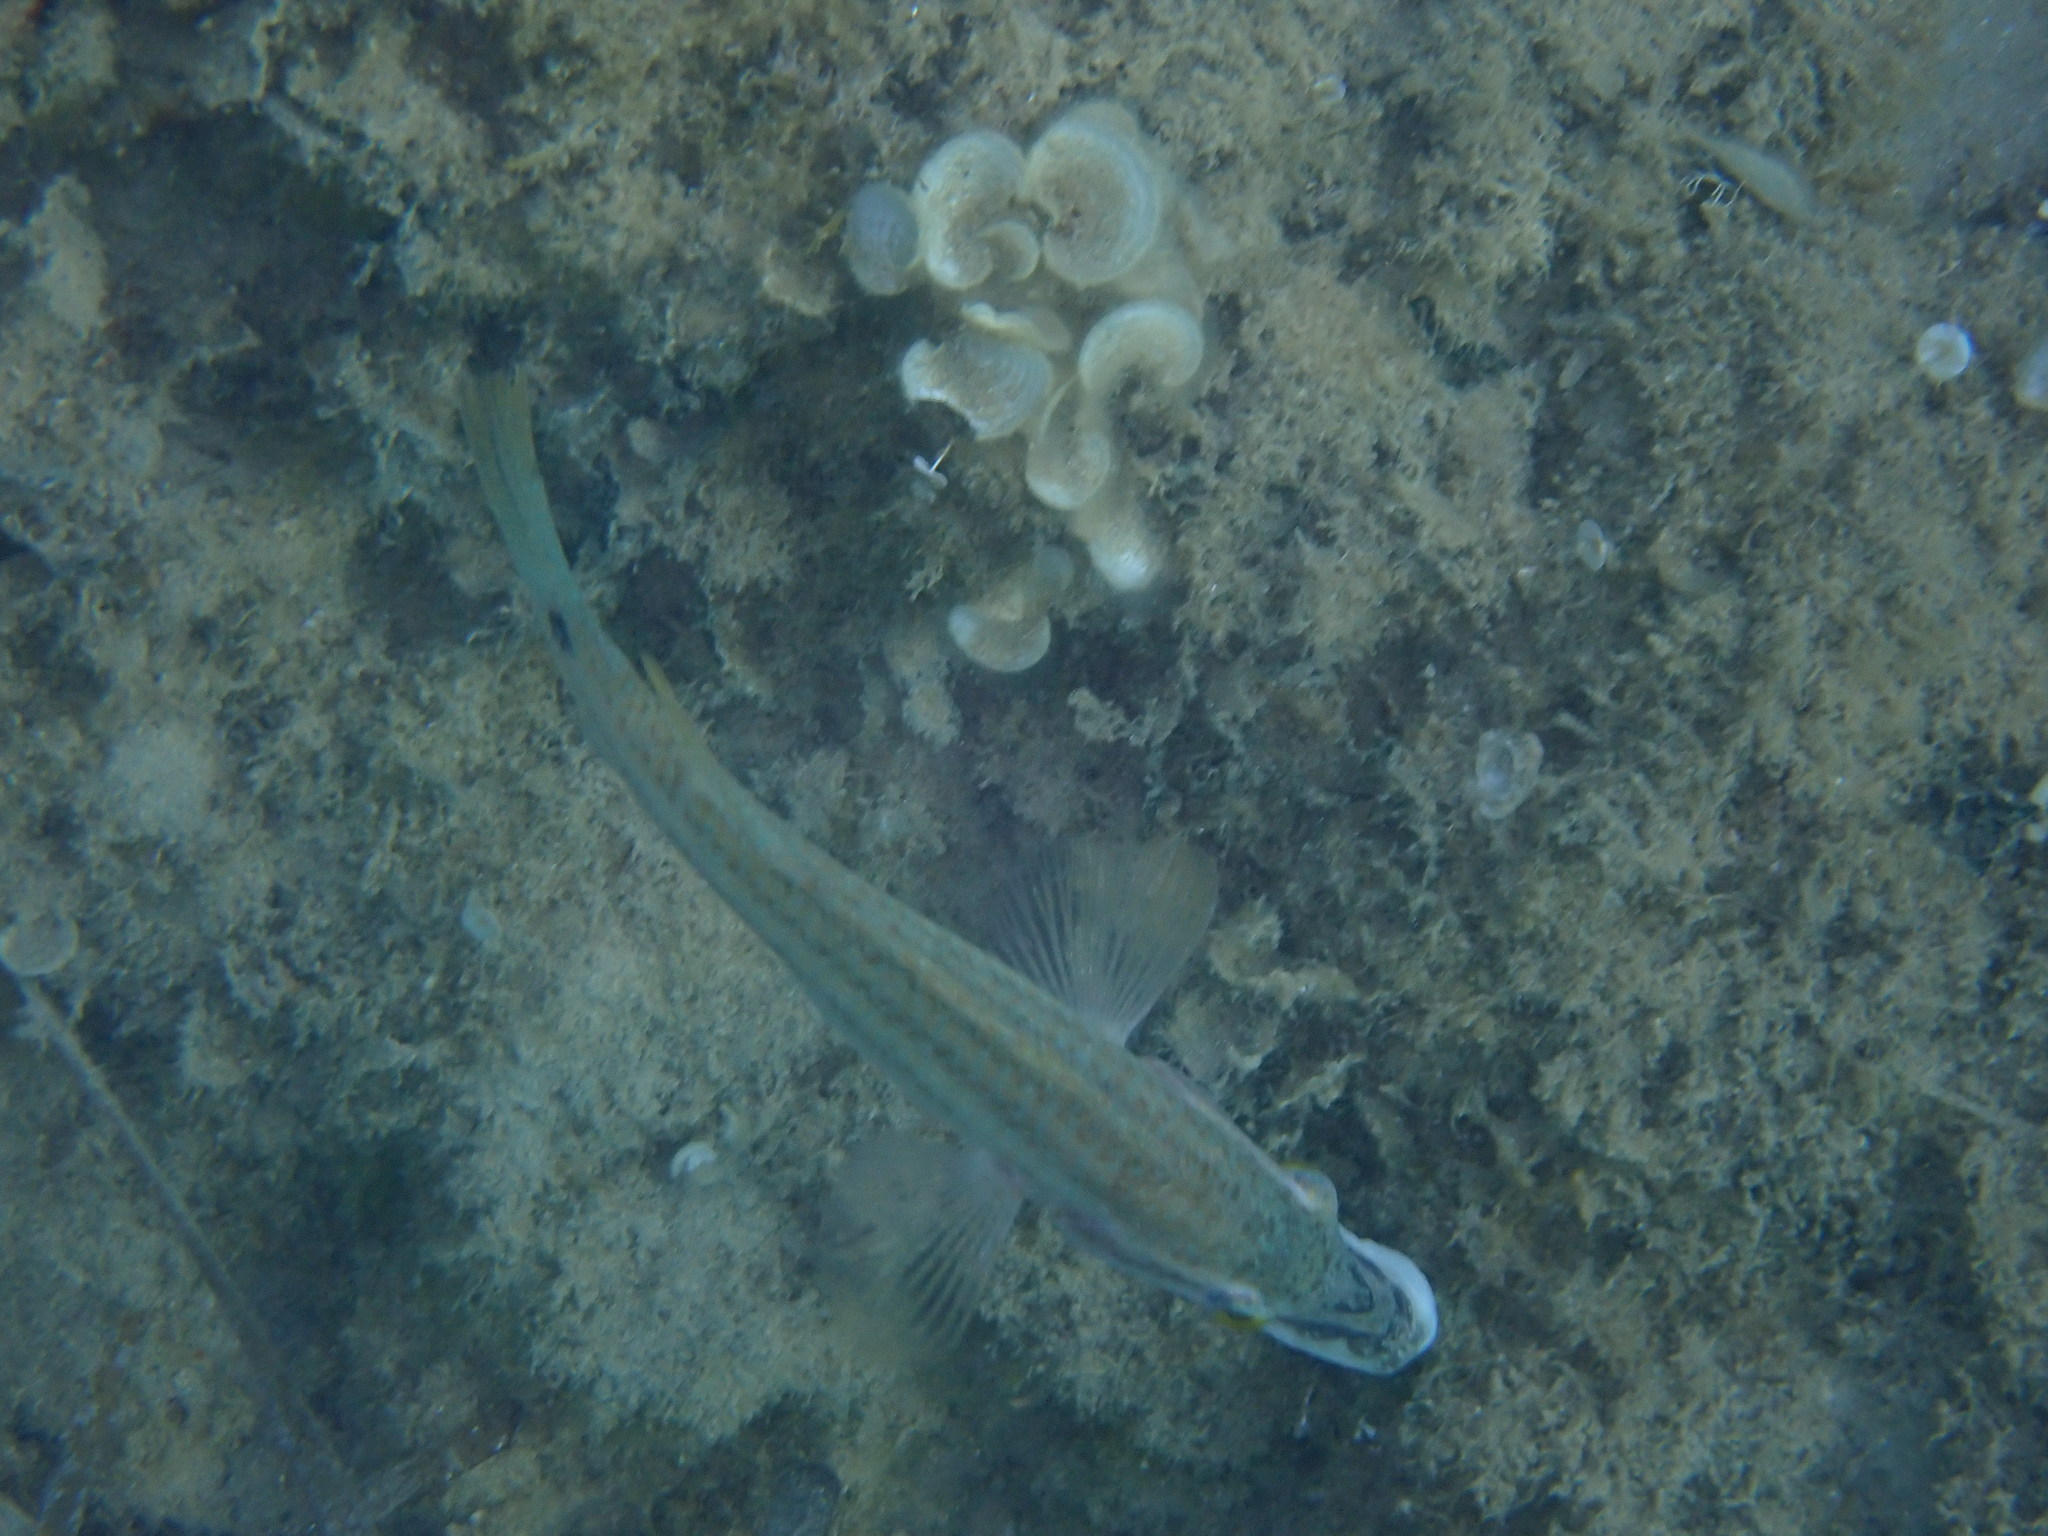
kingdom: Animalia
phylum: Chordata
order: Perciformes
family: Labridae
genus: Symphodus
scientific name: Symphodus tinca
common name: Peacock wrasse
